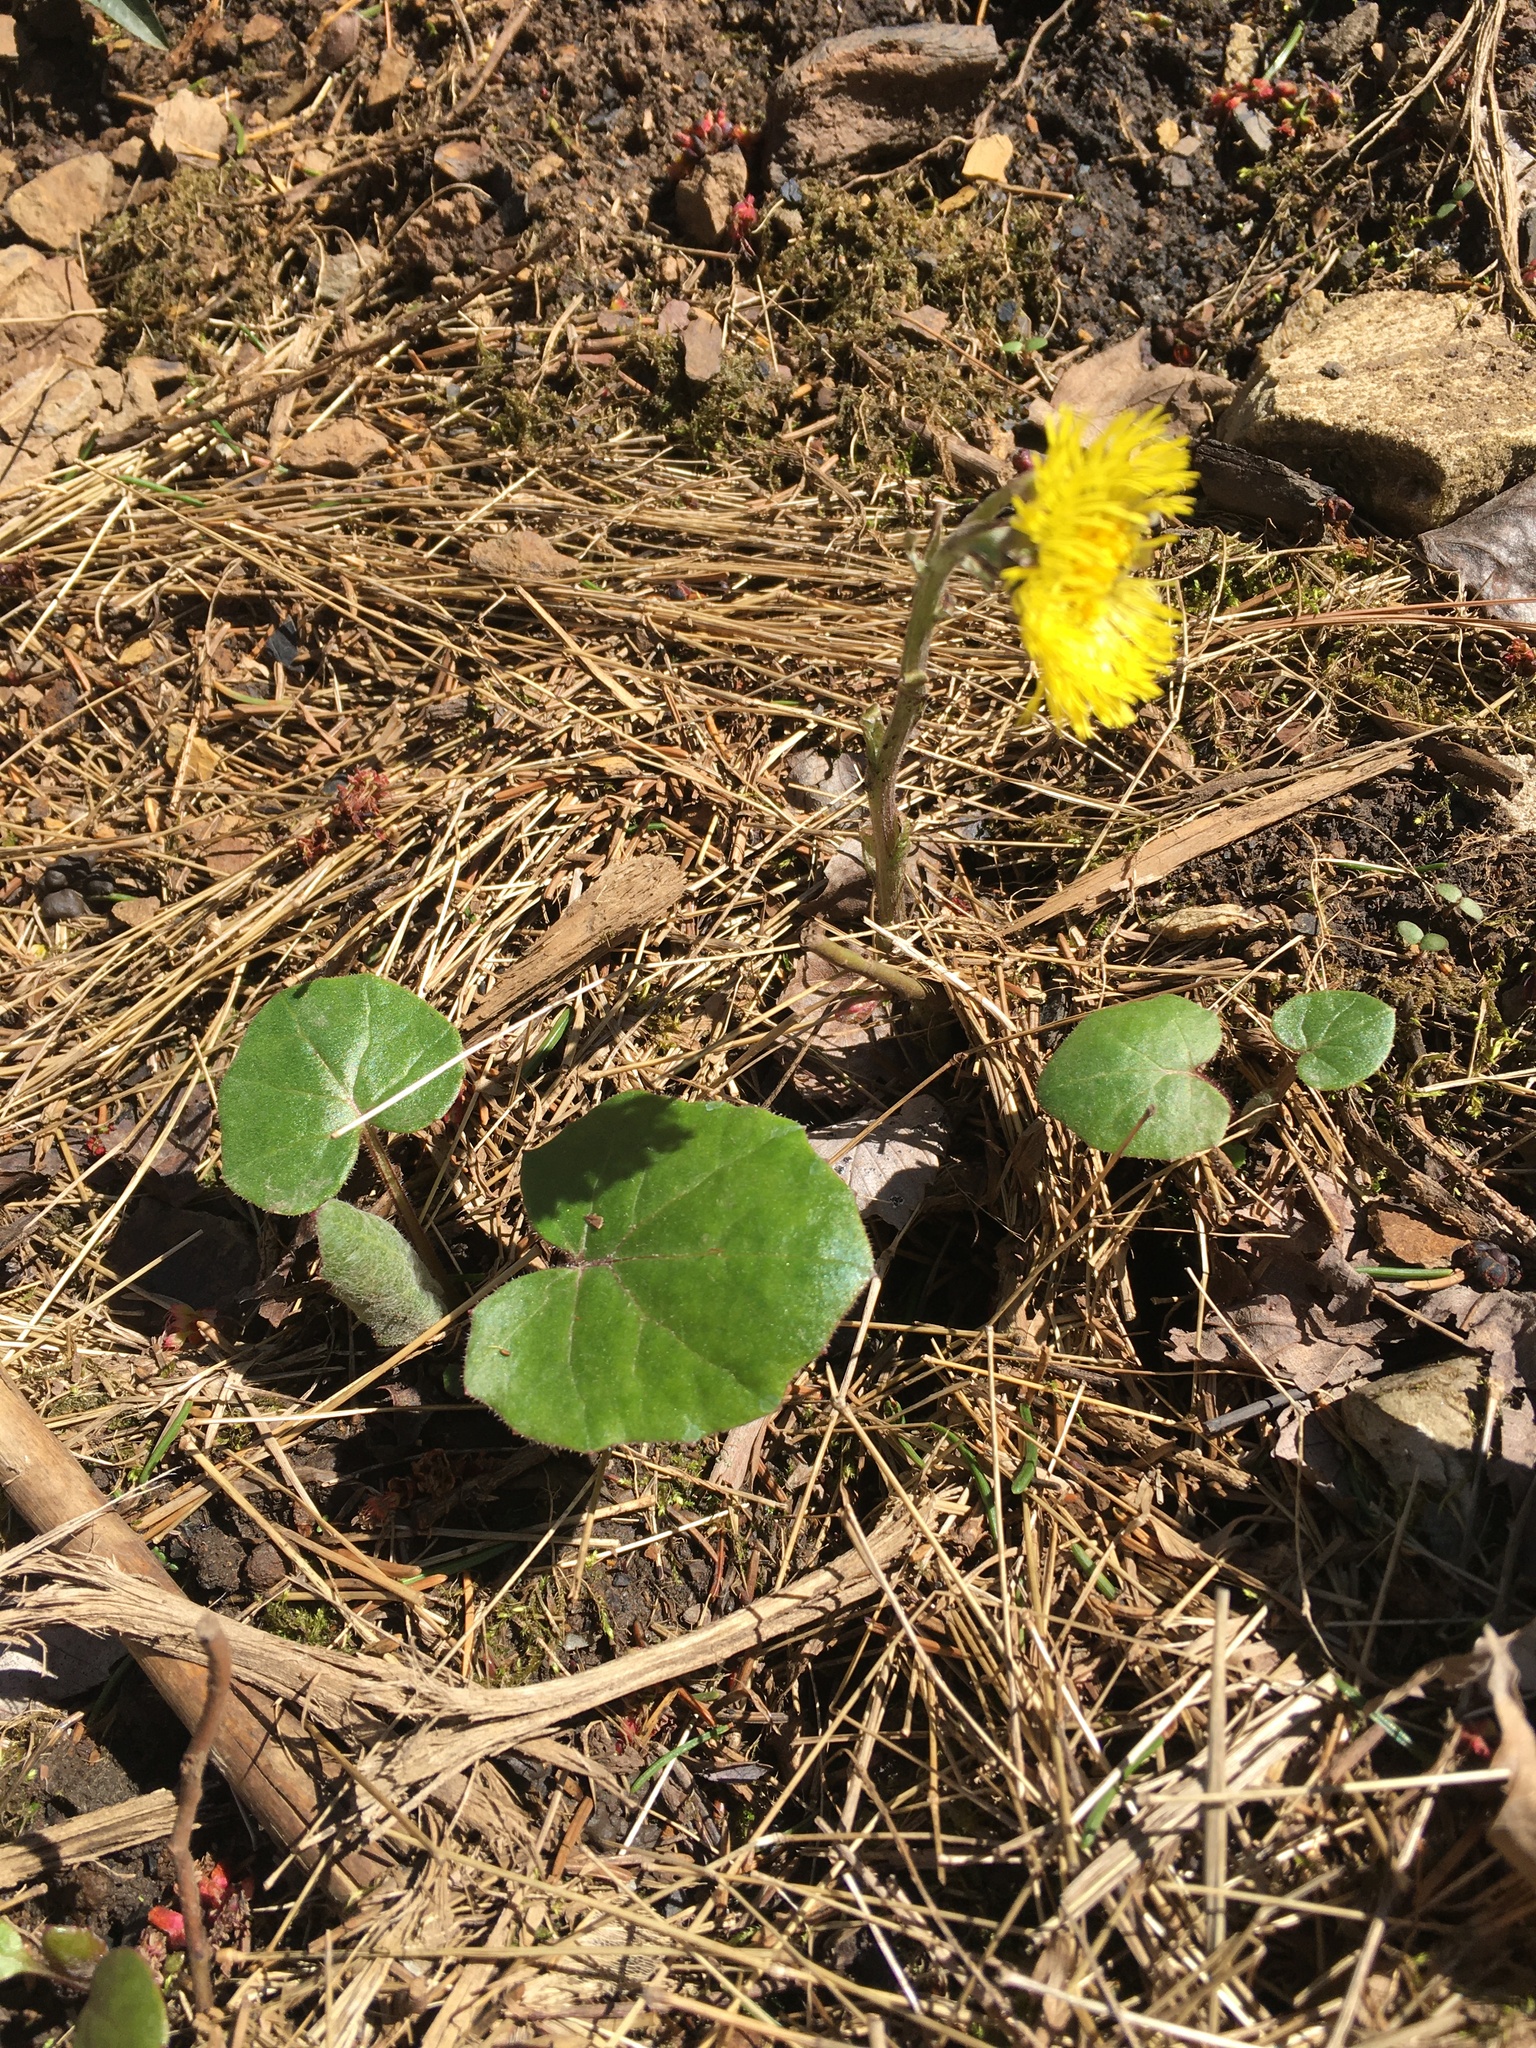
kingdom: Plantae
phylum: Tracheophyta
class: Magnoliopsida
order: Asterales
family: Asteraceae
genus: Tussilago
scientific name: Tussilago farfara
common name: Coltsfoot
